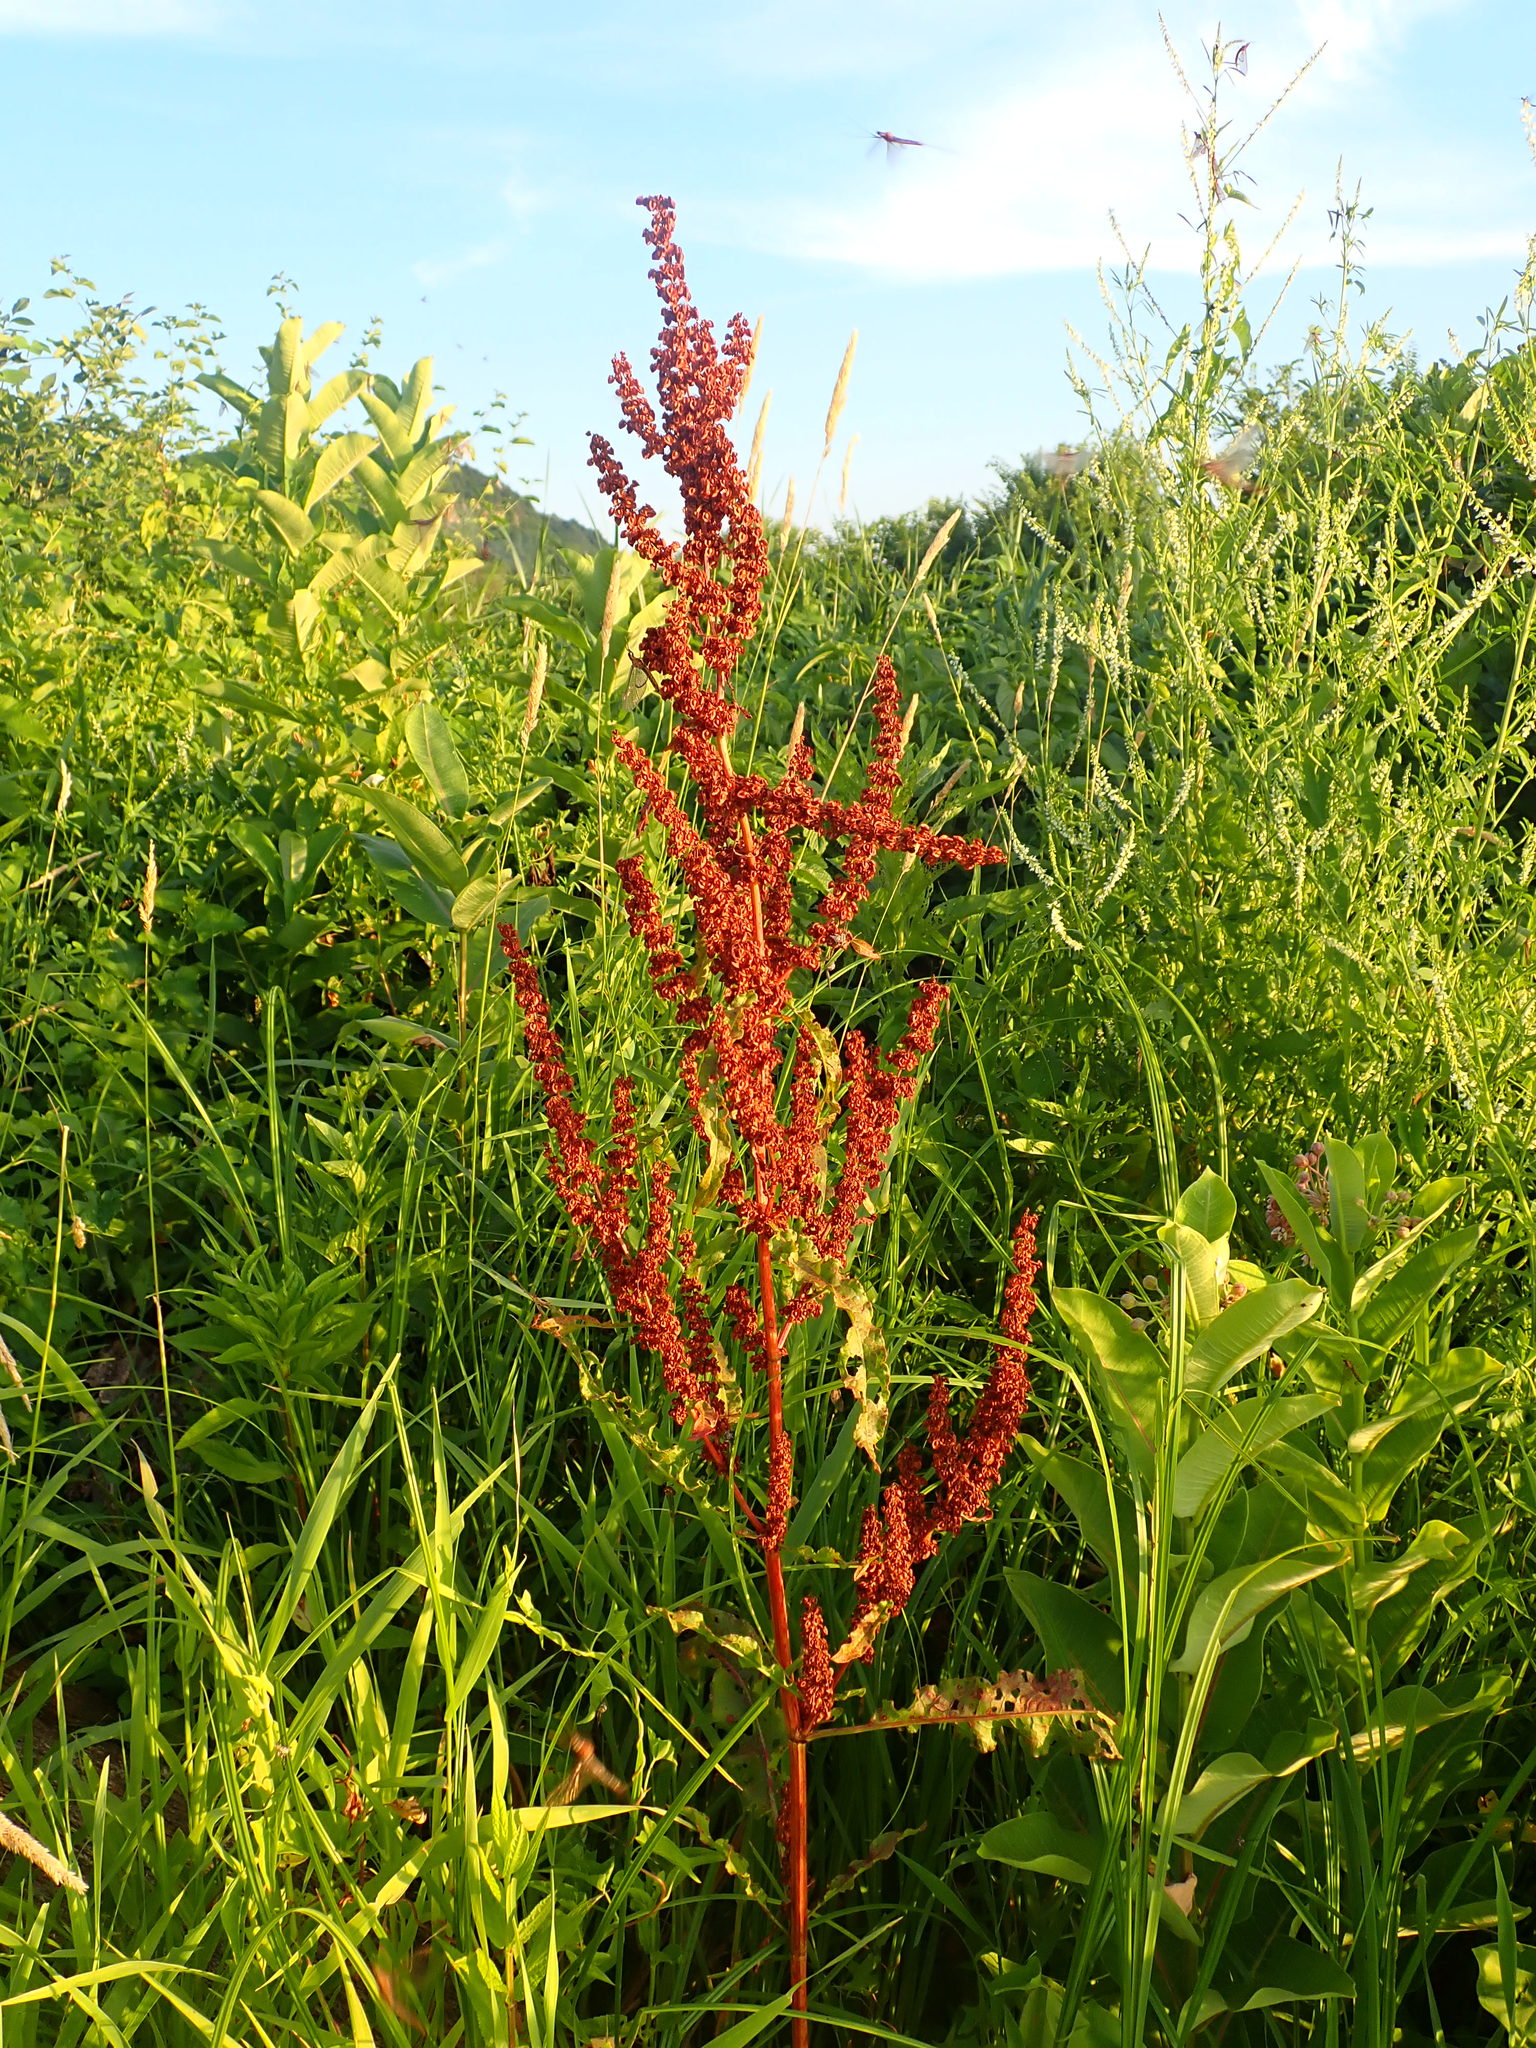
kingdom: Plantae
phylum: Tracheophyta
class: Magnoliopsida
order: Caryophyllales
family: Polygonaceae
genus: Rumex
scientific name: Rumex crispus
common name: Curled dock
